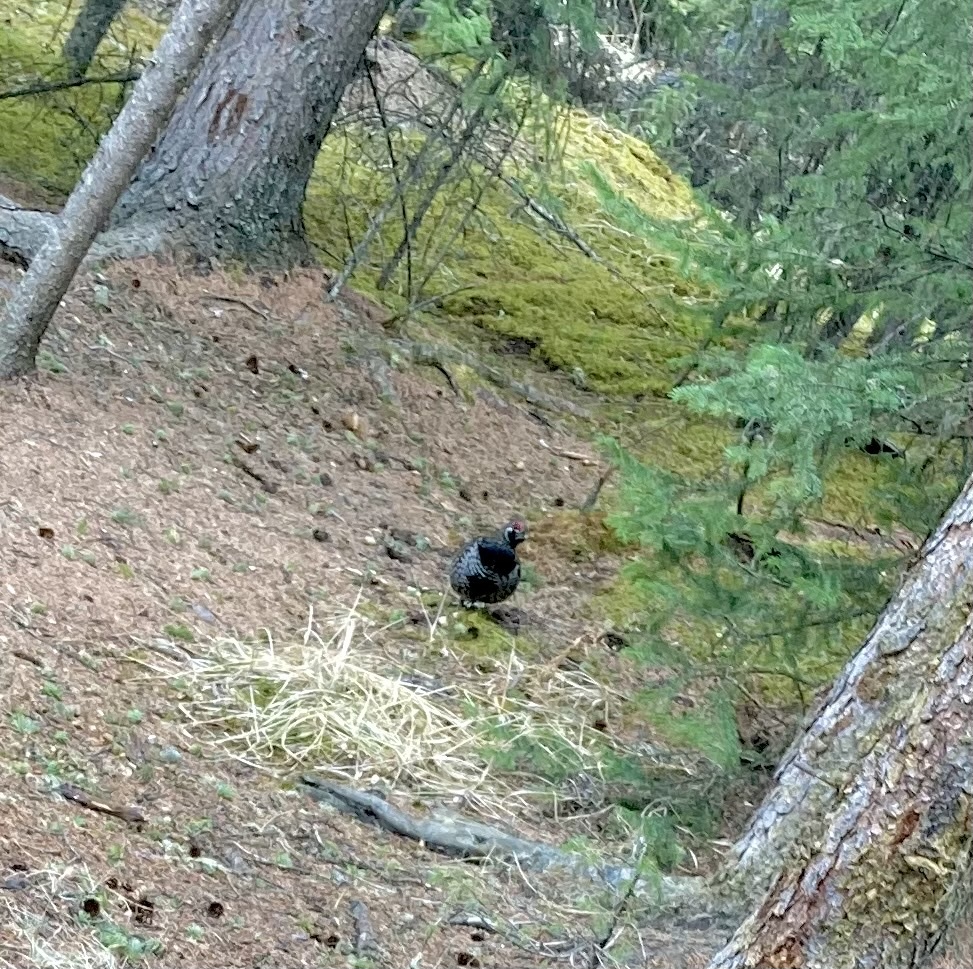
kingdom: Animalia
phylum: Chordata
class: Aves
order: Galliformes
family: Phasianidae
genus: Canachites
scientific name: Canachites canadensis
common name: Spruce grouse
